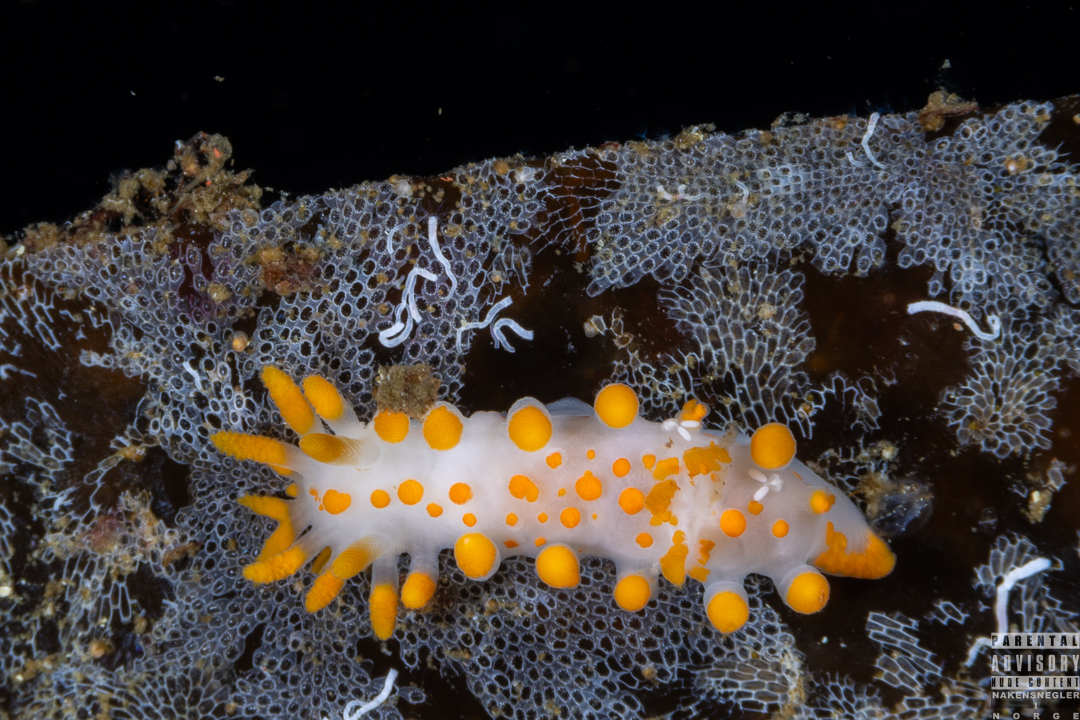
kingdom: Animalia
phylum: Mollusca
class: Gastropoda
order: Nudibranchia
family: Polyceridae
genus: Limacia
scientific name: Limacia clavigera
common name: Orange-clubbed sea slug
